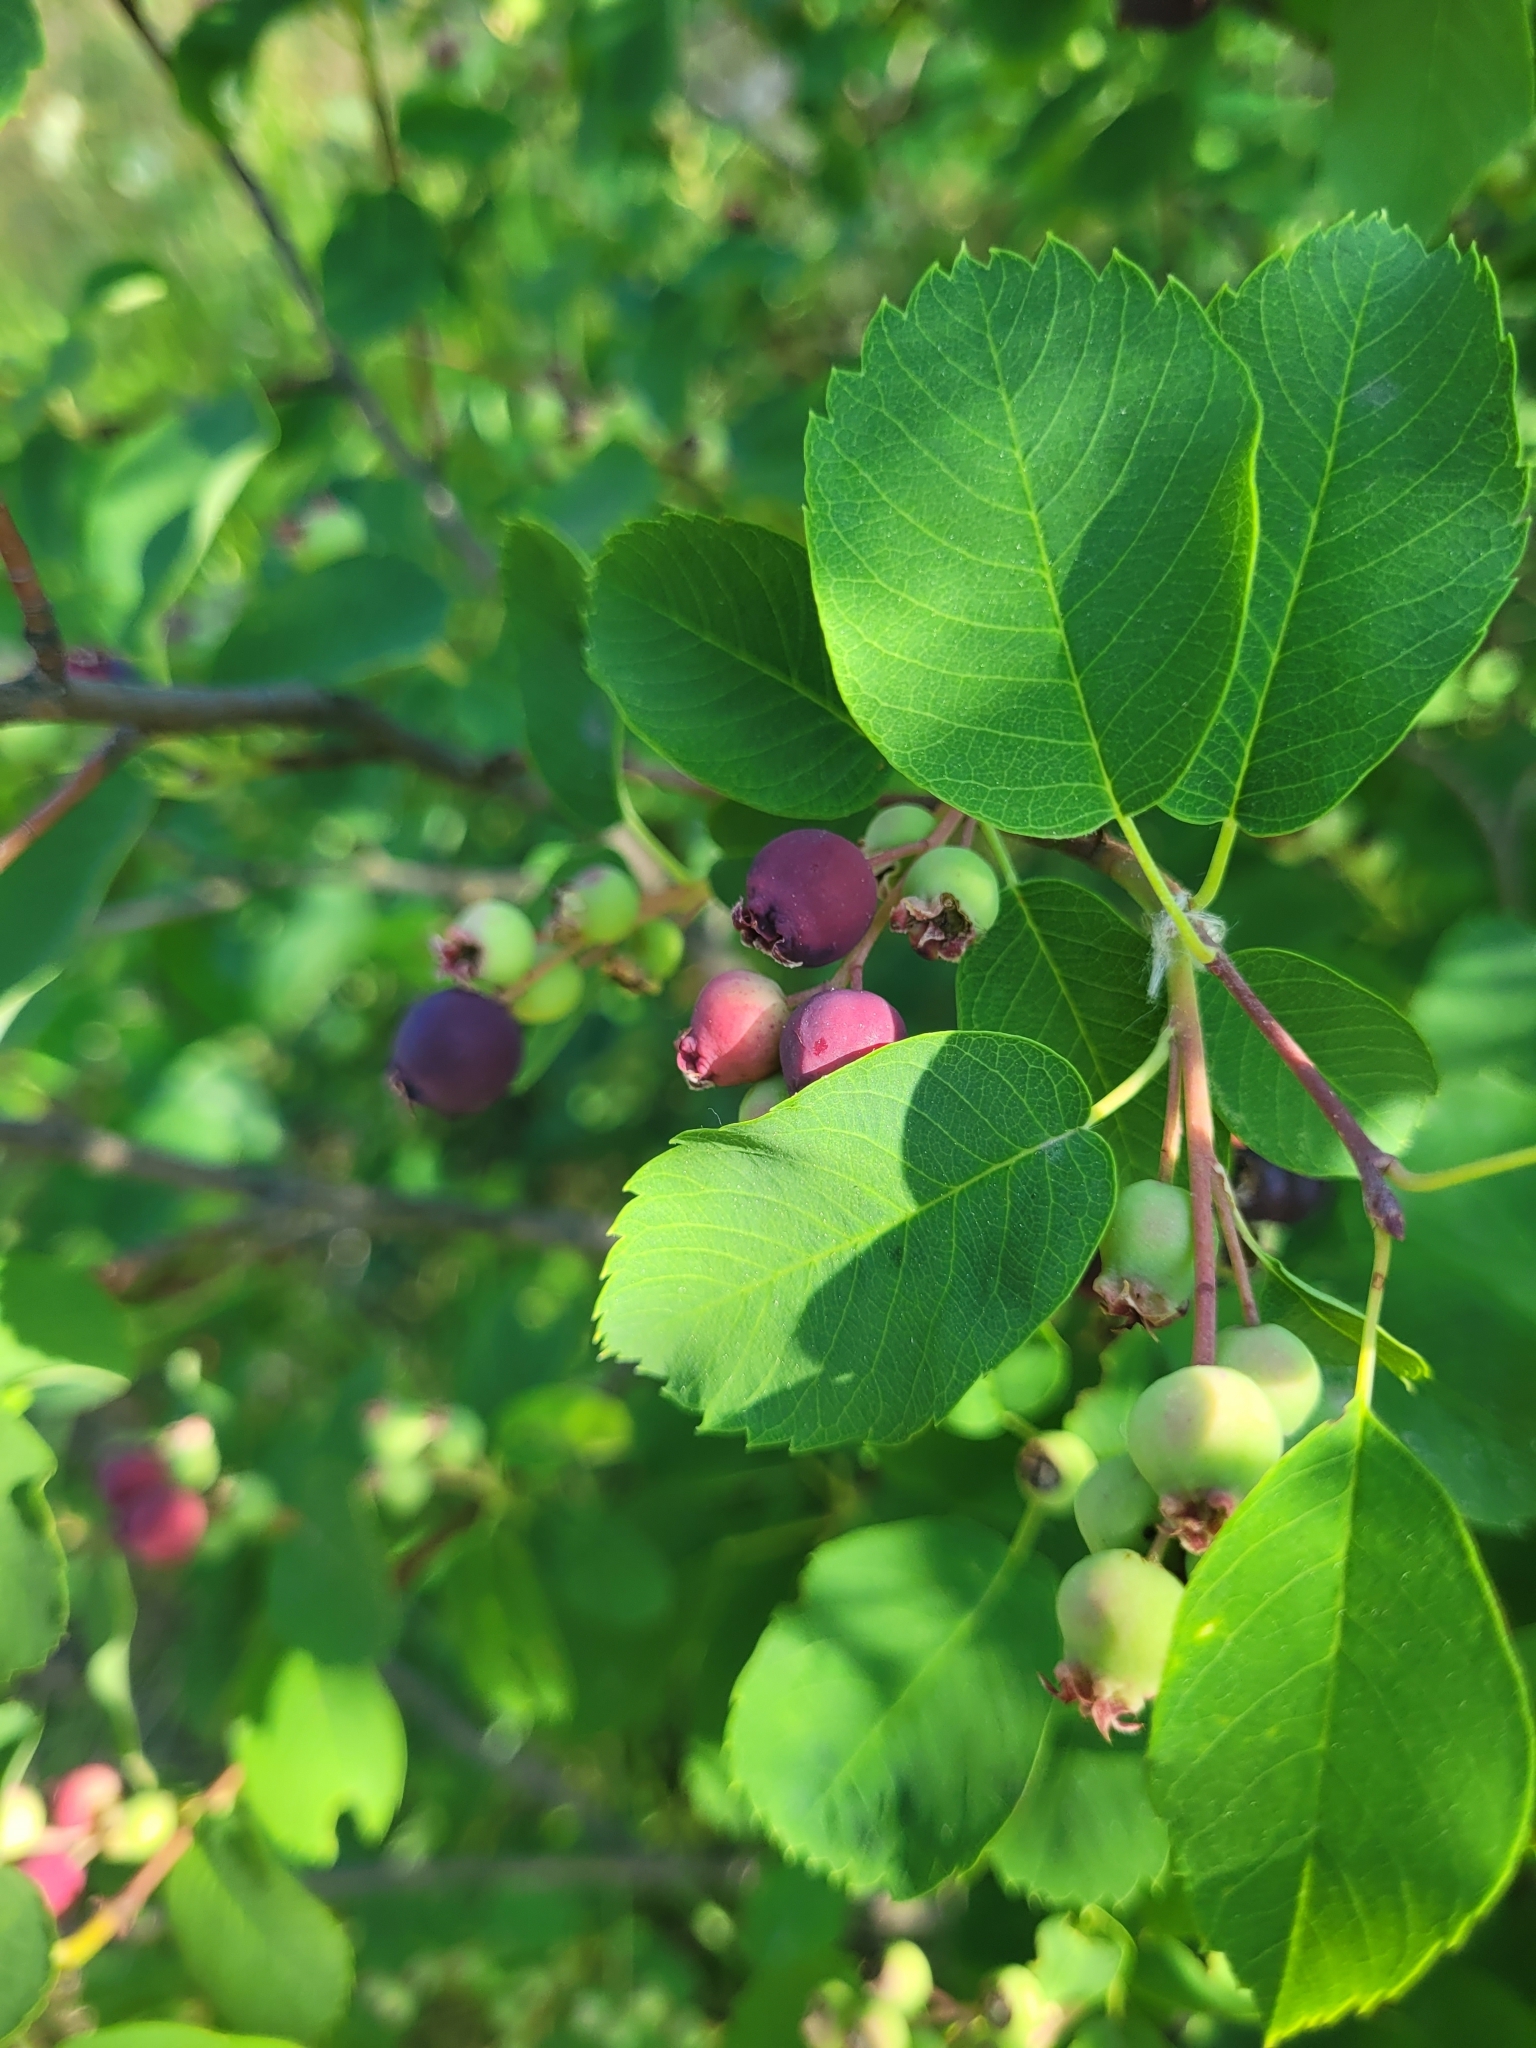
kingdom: Plantae
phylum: Tracheophyta
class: Magnoliopsida
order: Rosales
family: Rosaceae
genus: Amelanchier
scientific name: Amelanchier alnifolia
